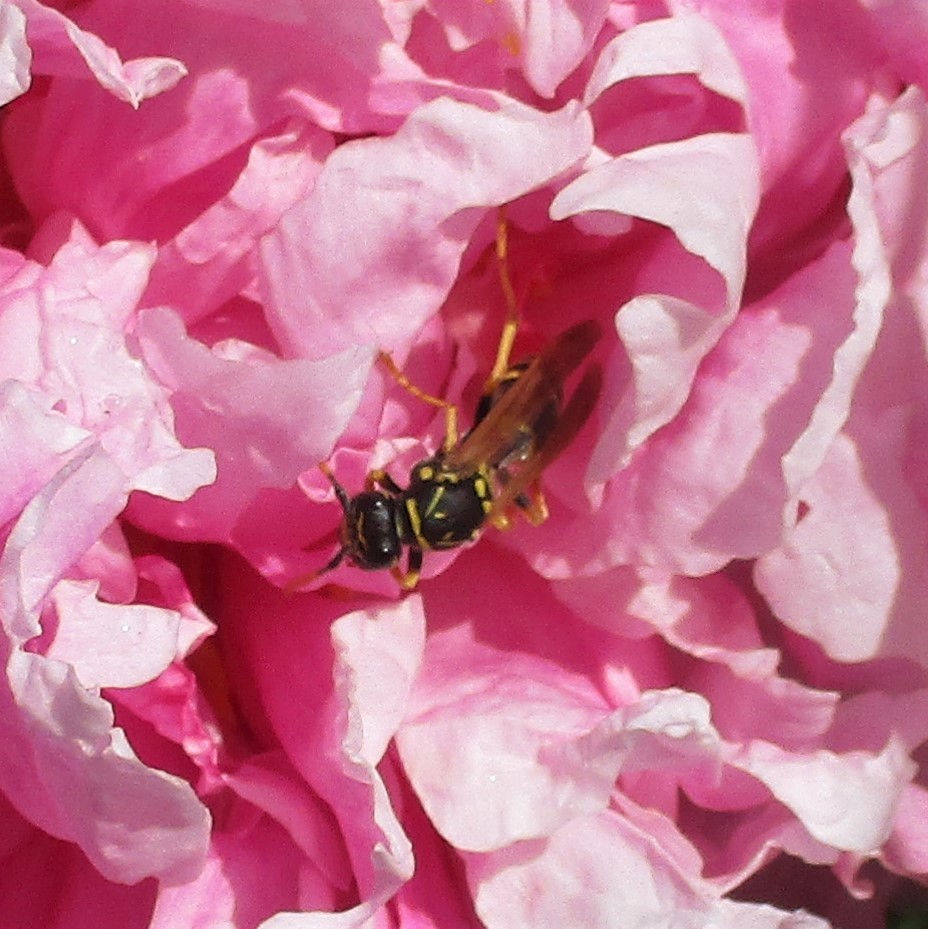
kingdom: Animalia
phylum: Arthropoda
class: Insecta
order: Hymenoptera
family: Eumenidae
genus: Polistes
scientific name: Polistes dominula
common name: Paper wasp
